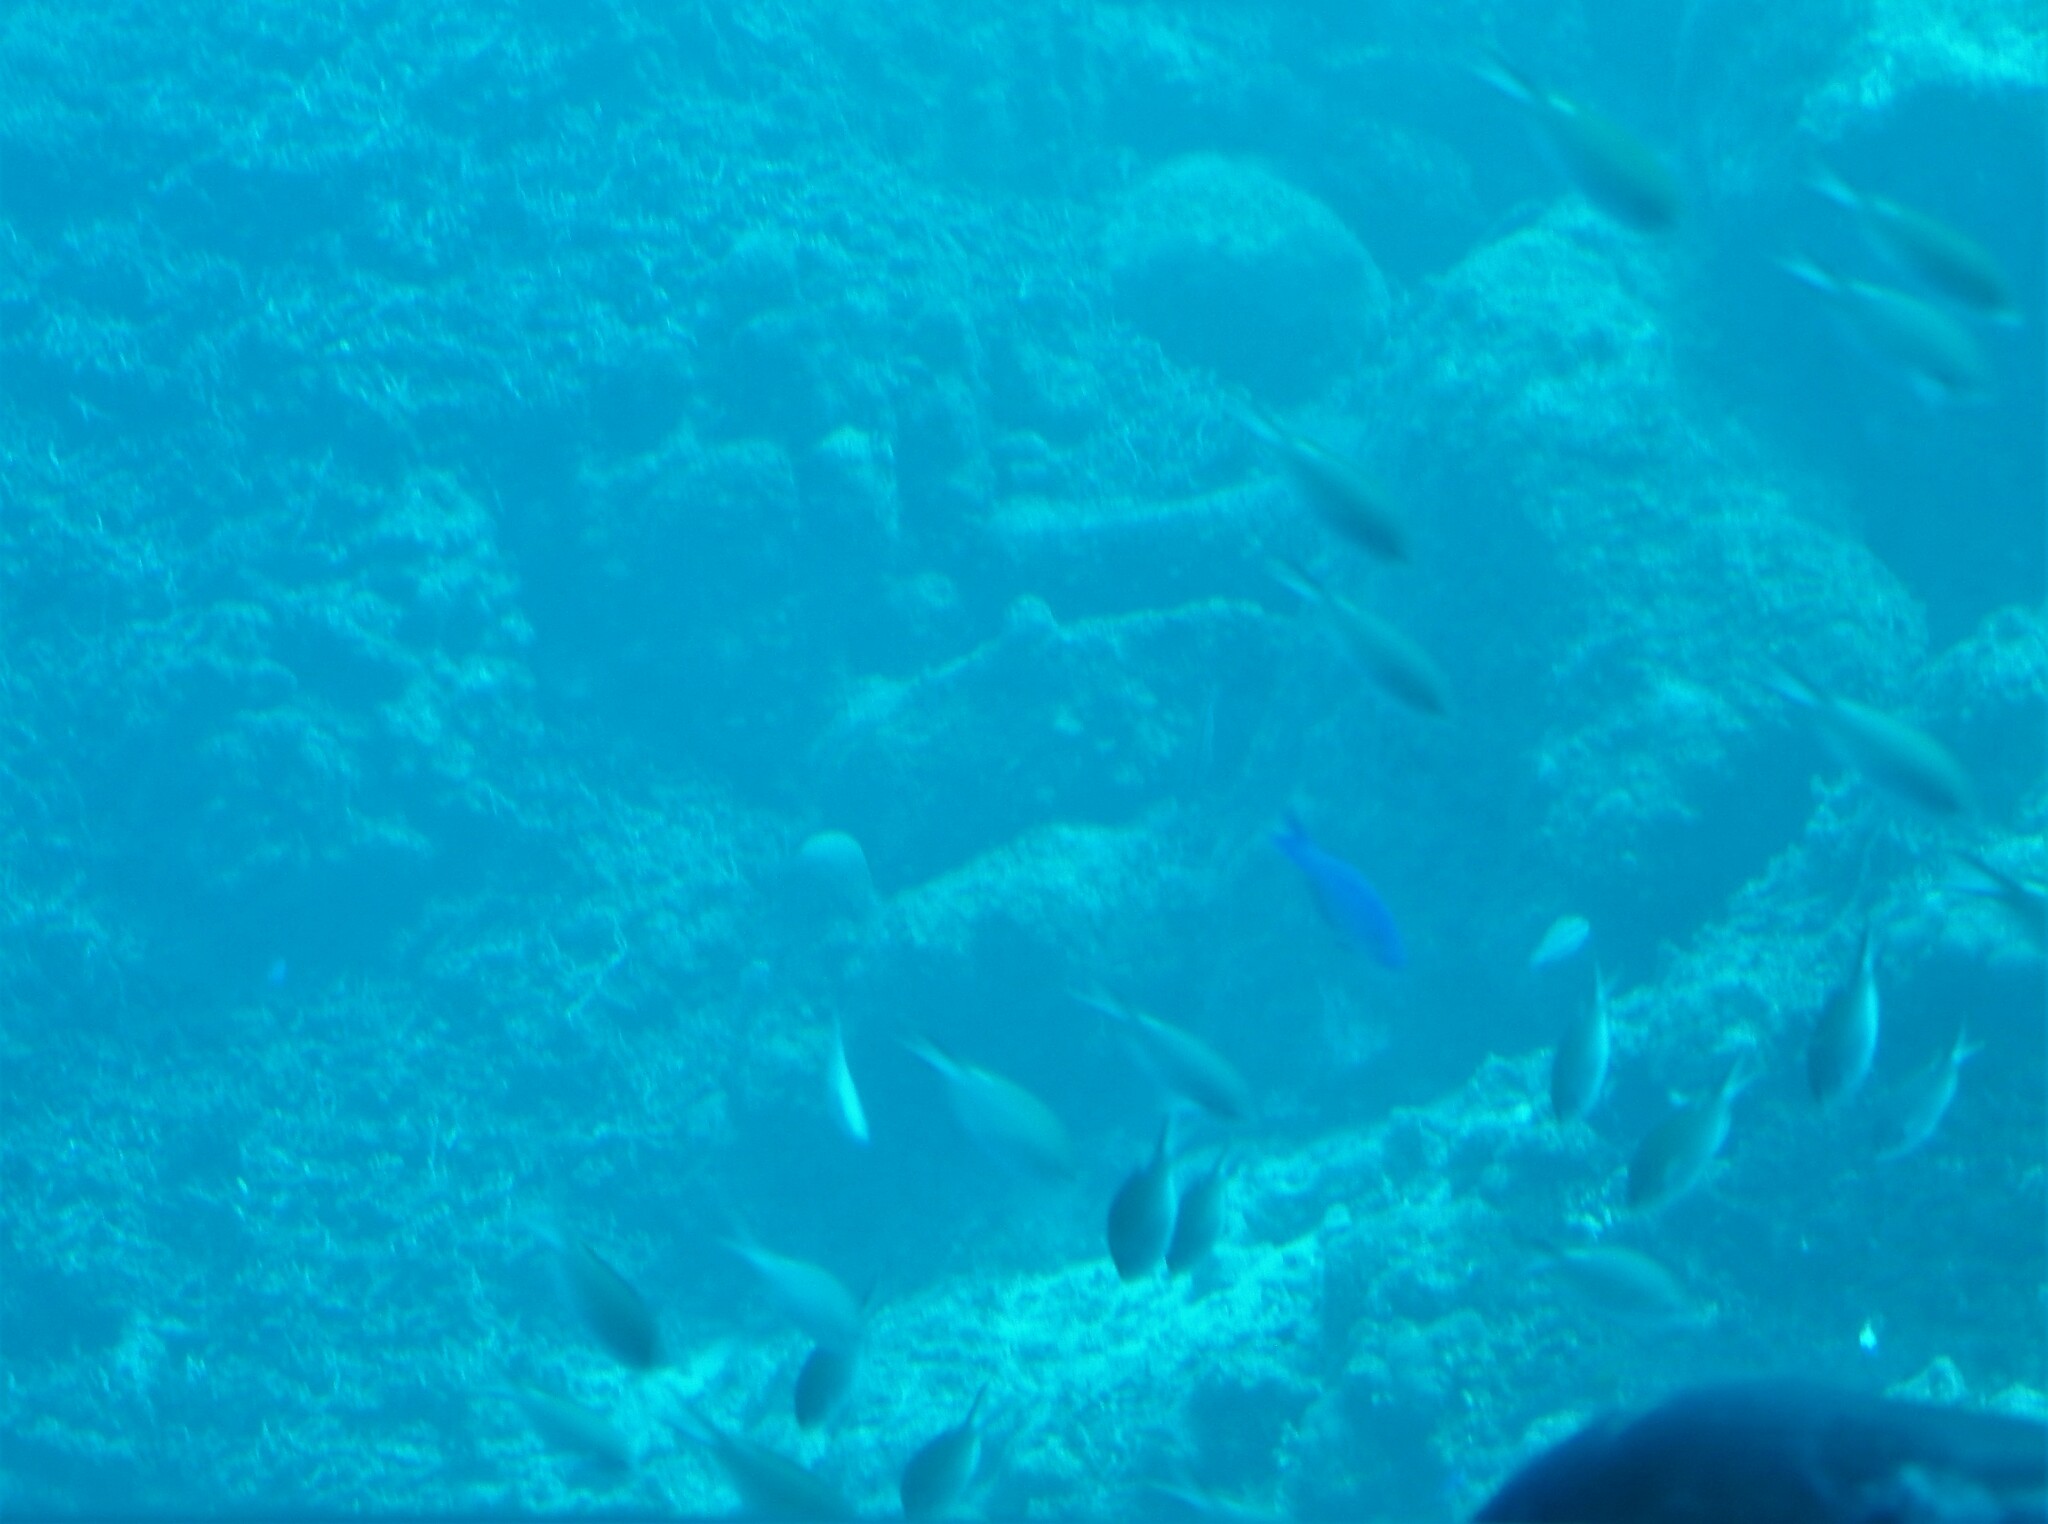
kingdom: Animalia
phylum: Chordata
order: Perciformes
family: Pomacentridae
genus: Chromis
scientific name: Chromis multilineata
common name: Brown chromis
